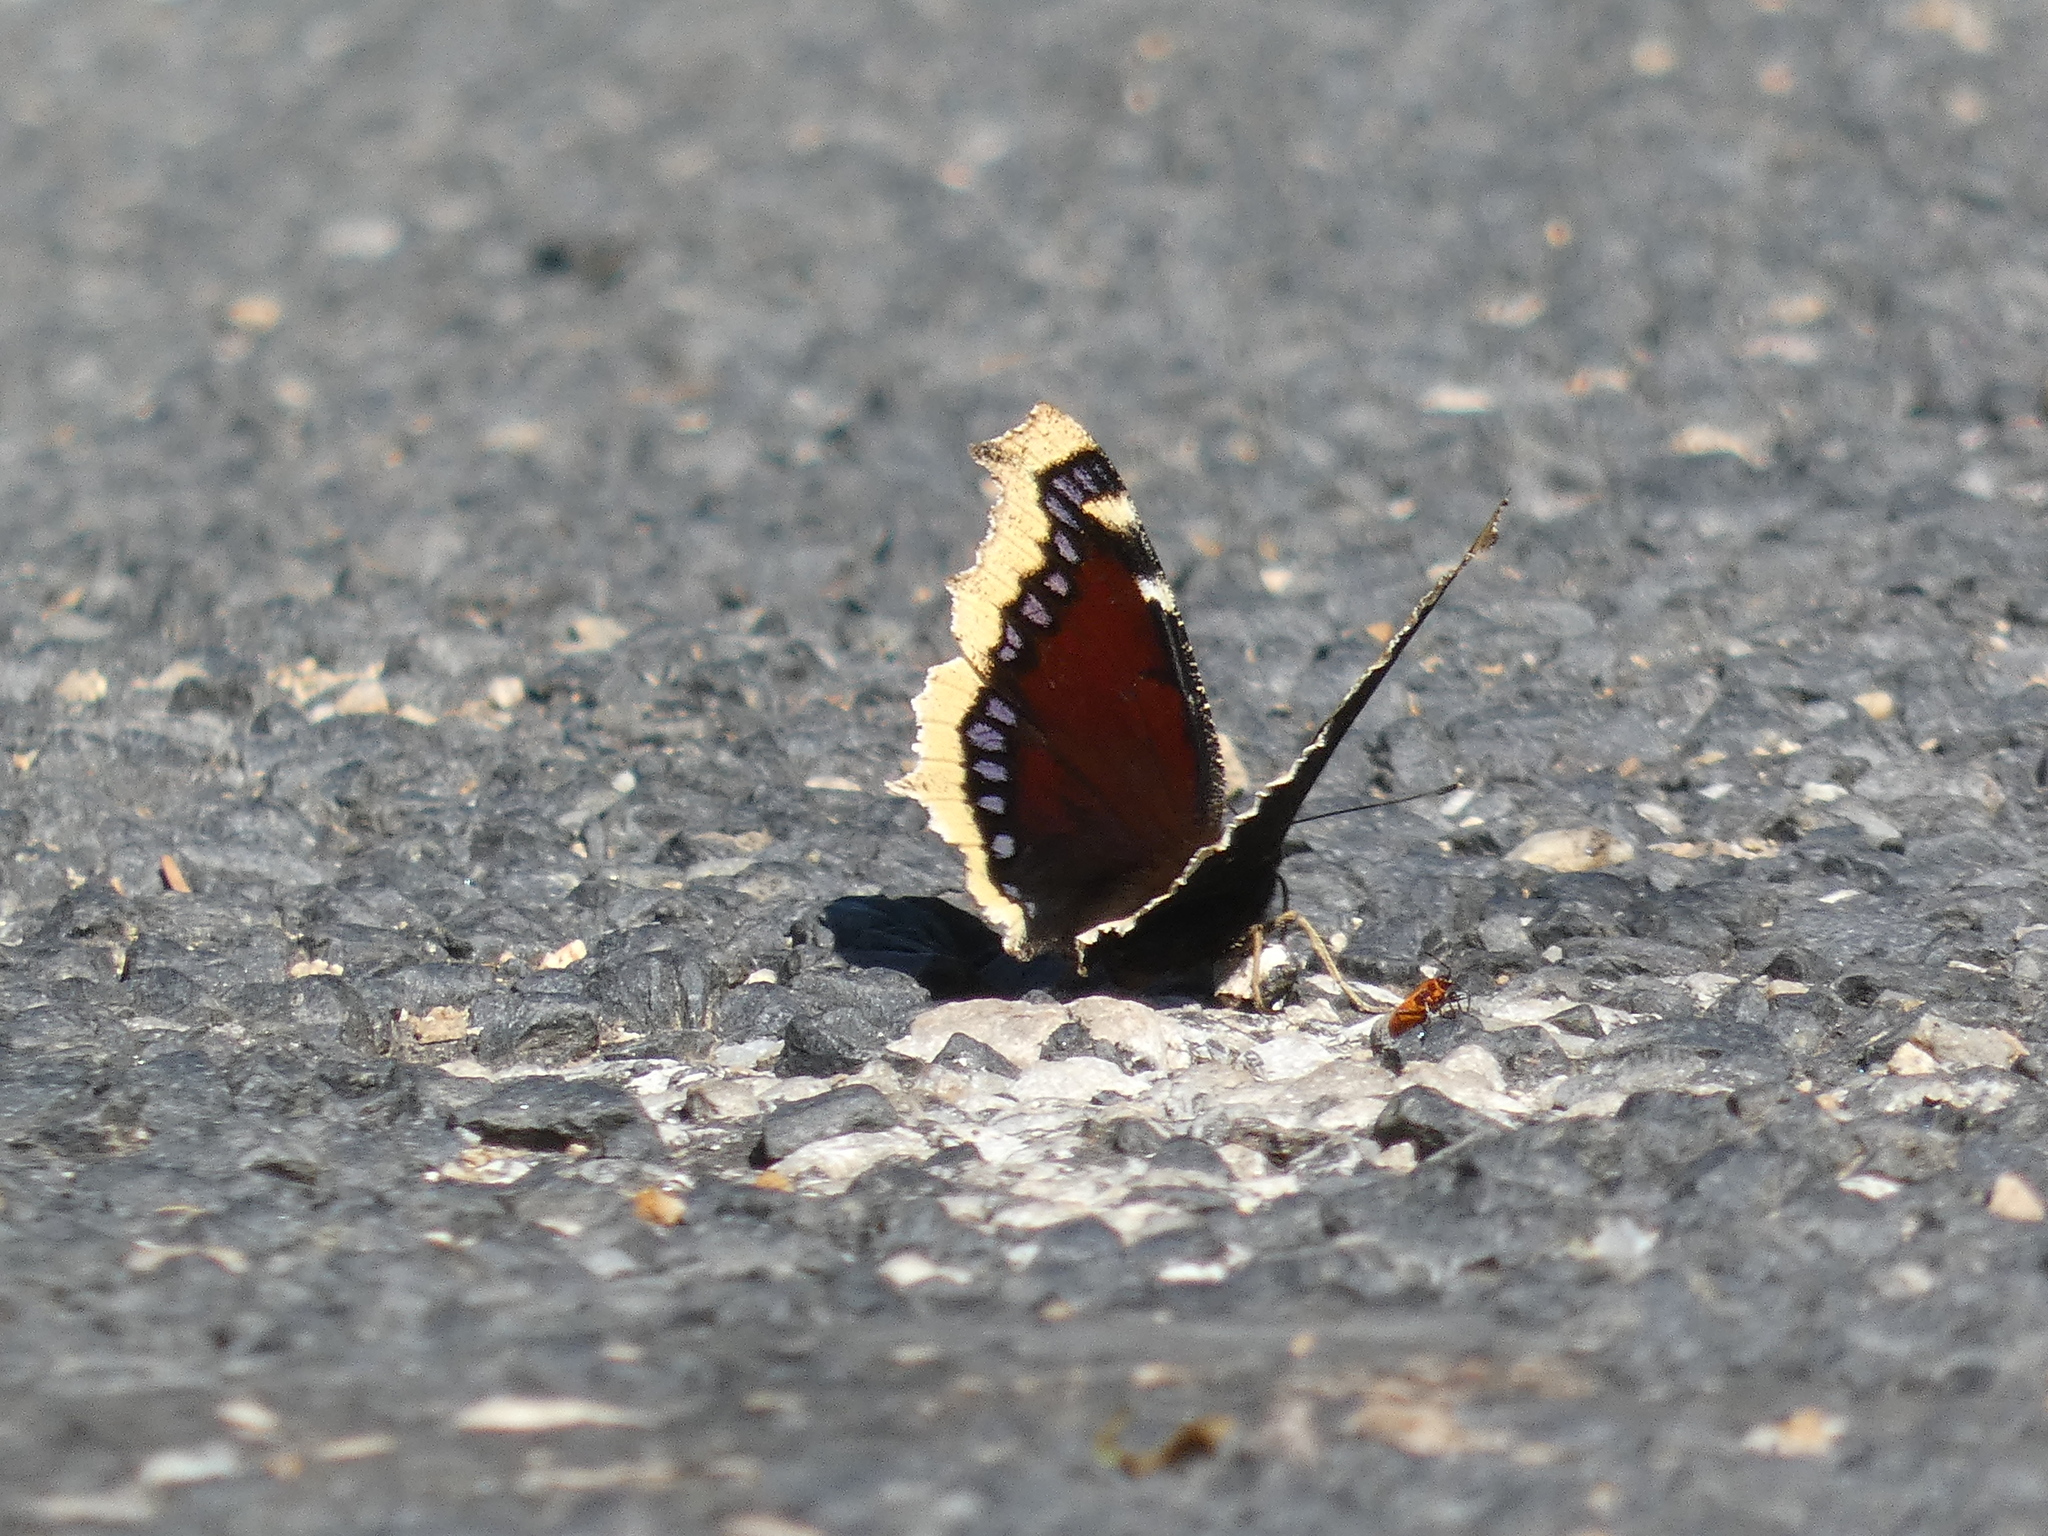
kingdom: Animalia
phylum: Arthropoda
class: Insecta
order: Lepidoptera
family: Nymphalidae
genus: Nymphalis
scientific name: Nymphalis antiopa
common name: Camberwell beauty
